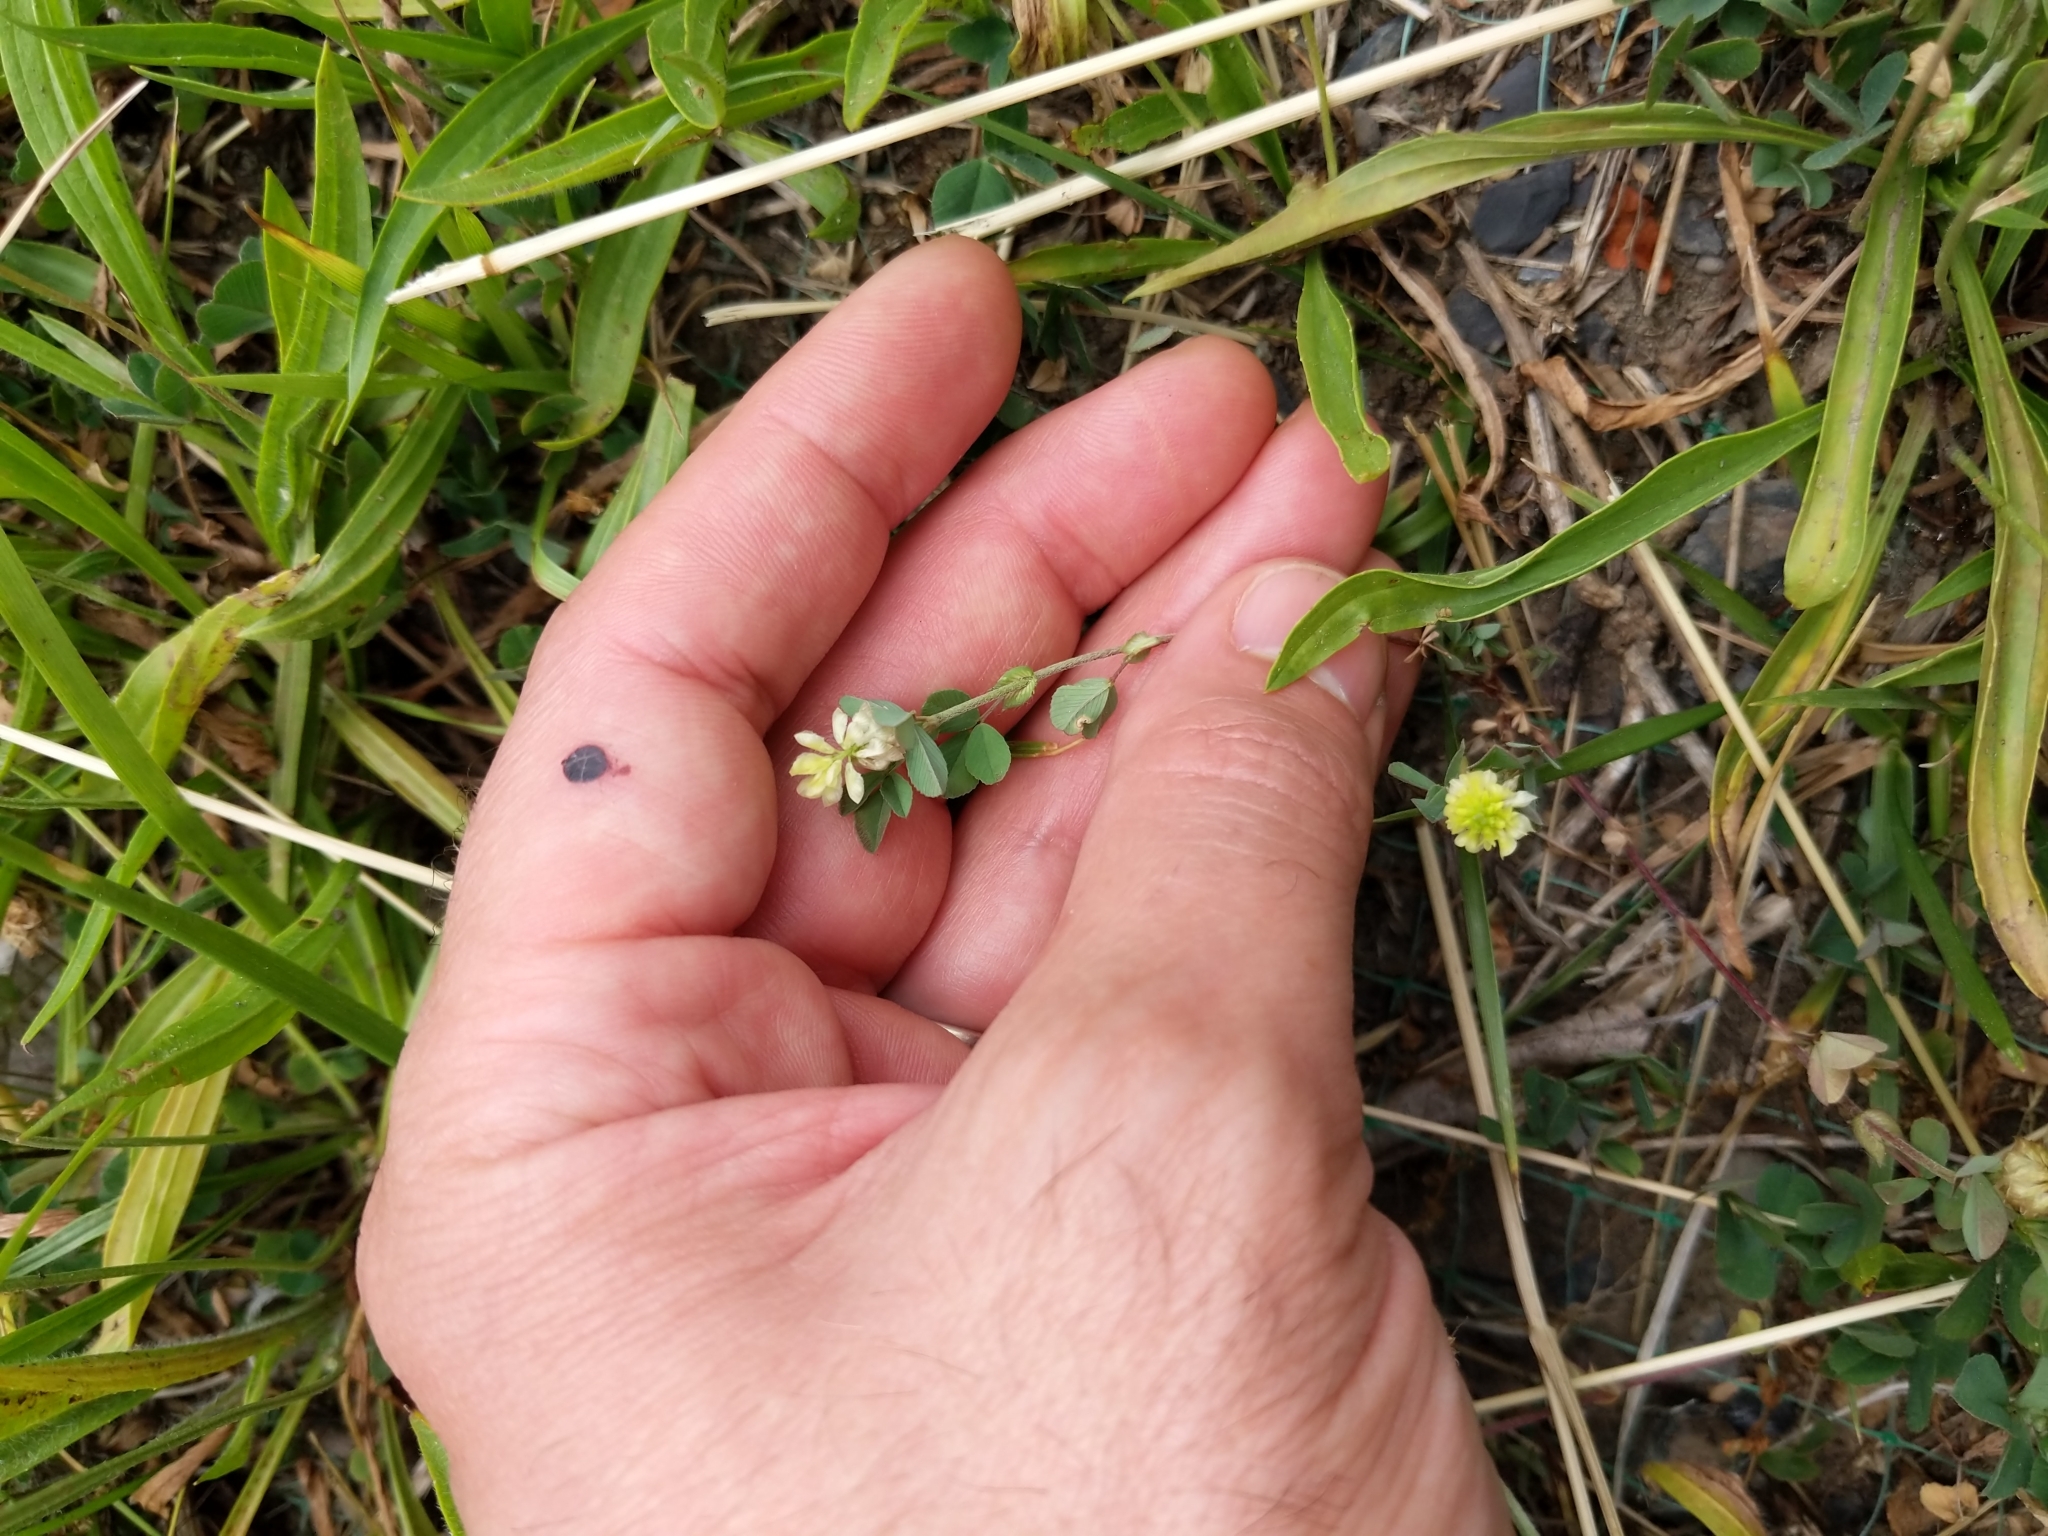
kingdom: Plantae
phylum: Tracheophyta
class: Magnoliopsida
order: Fabales
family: Fabaceae
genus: Trifolium
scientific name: Trifolium dubium
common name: Suckling clover
